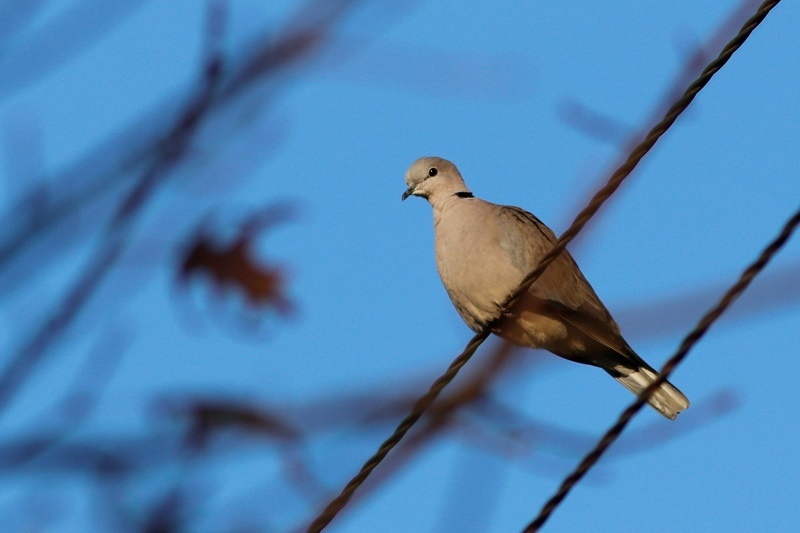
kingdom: Animalia
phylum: Chordata
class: Aves
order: Columbiformes
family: Columbidae
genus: Streptopelia
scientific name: Streptopelia capicola
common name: Ring-necked dove
